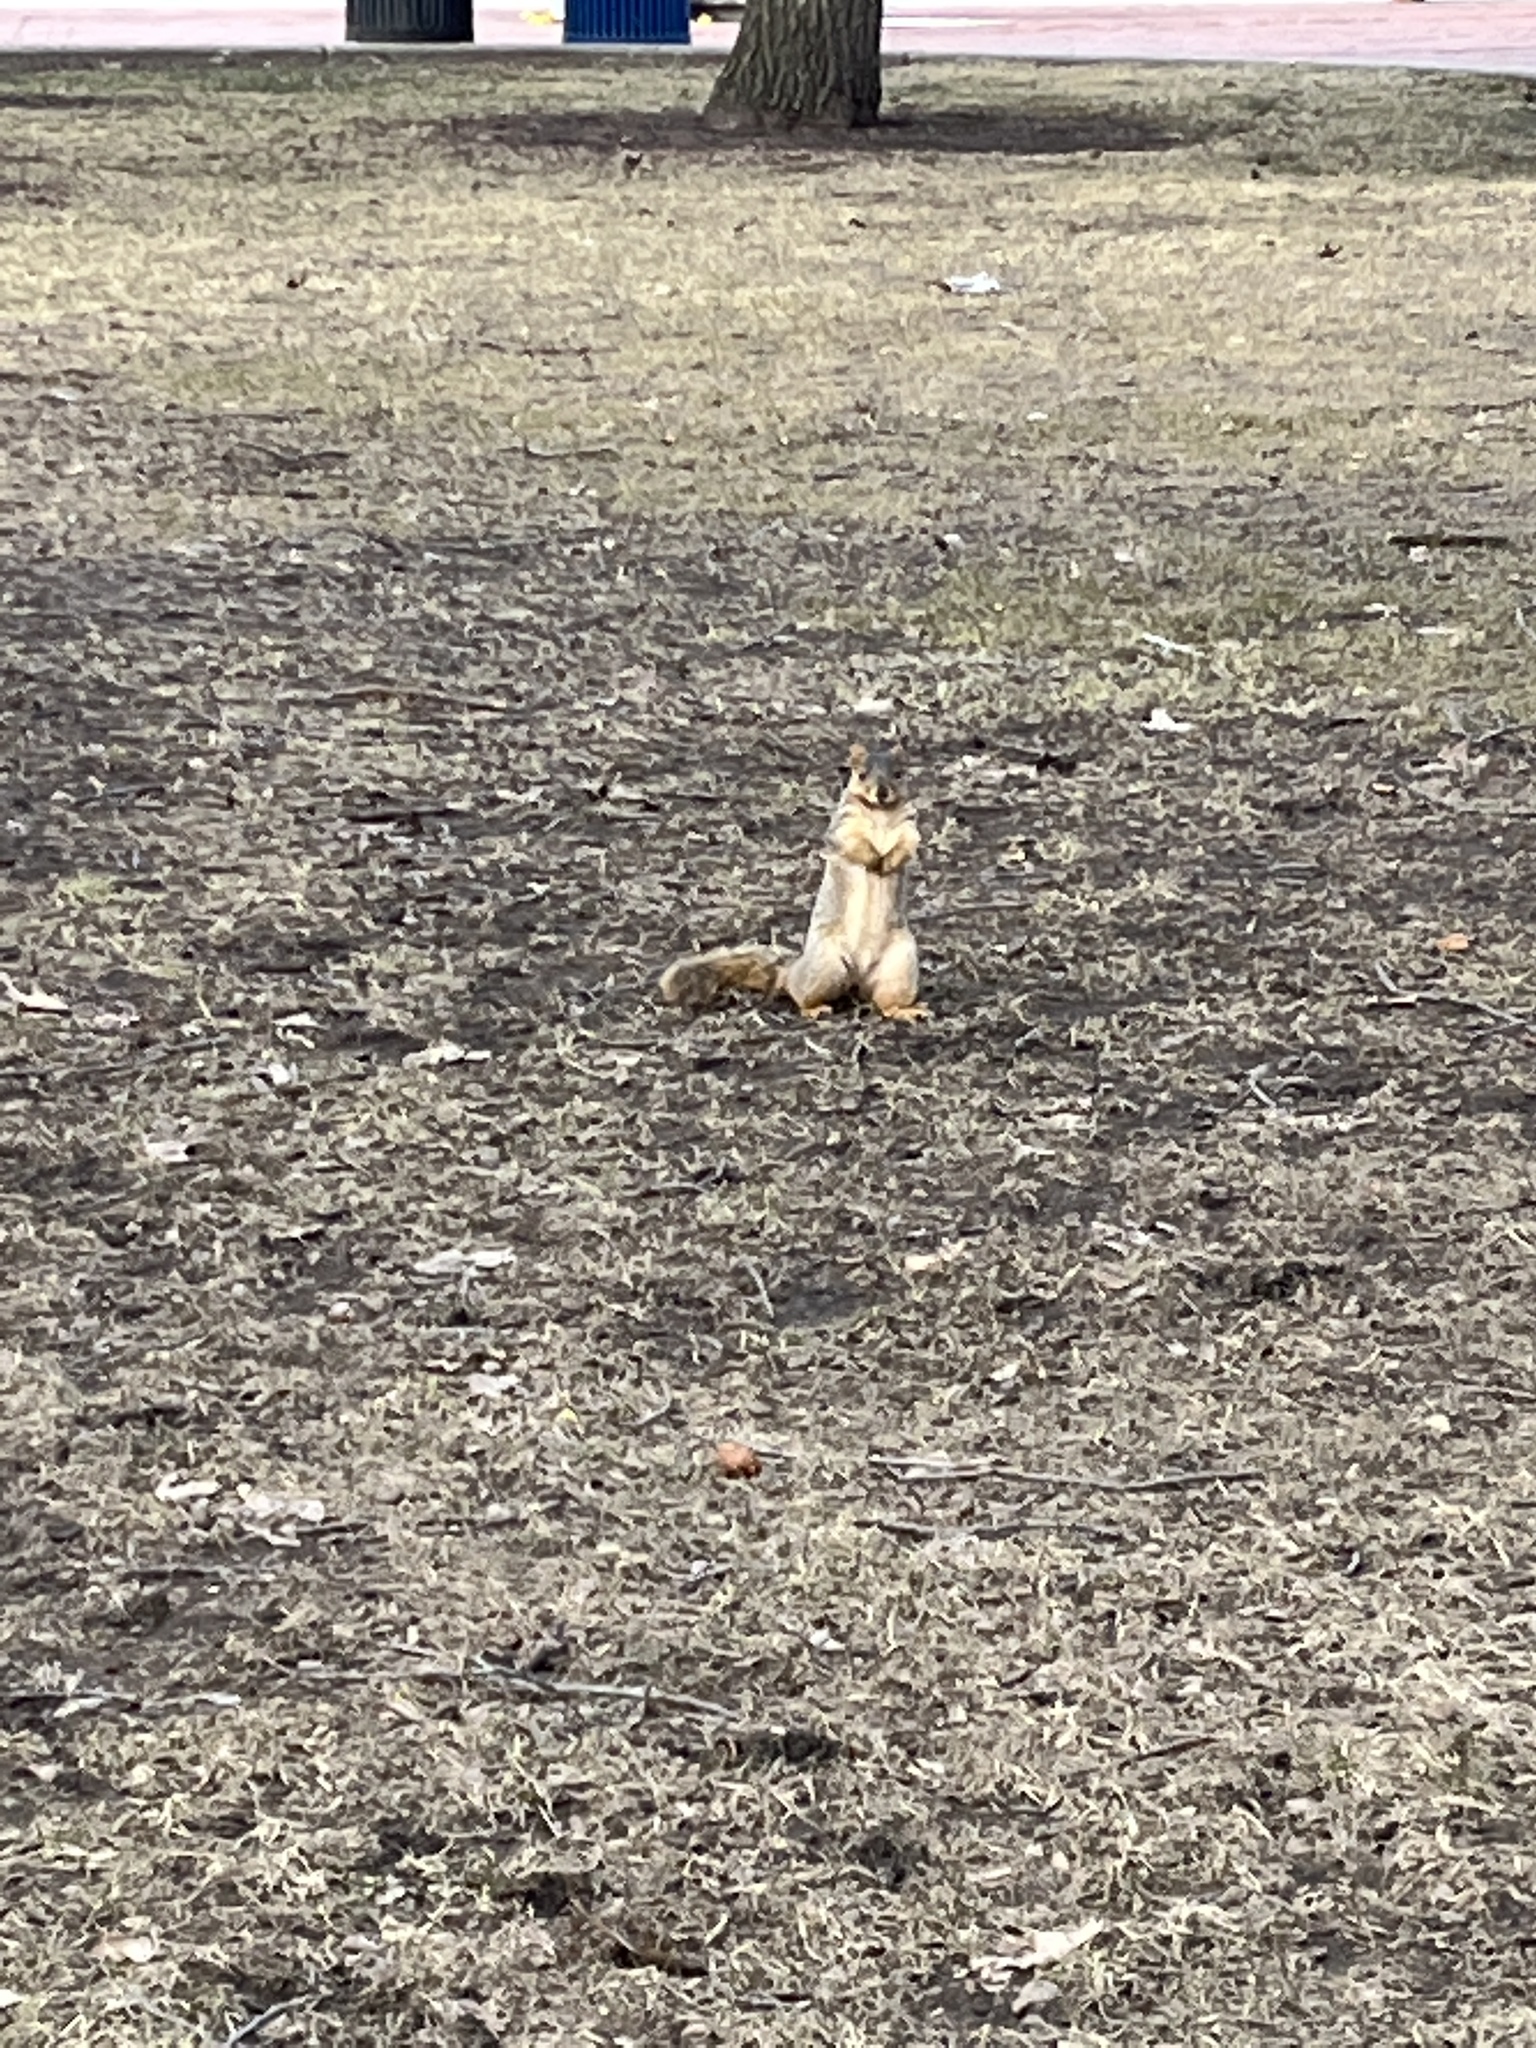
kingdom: Animalia
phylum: Chordata
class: Mammalia
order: Rodentia
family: Sciuridae
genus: Sciurus
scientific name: Sciurus niger
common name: Fox squirrel
